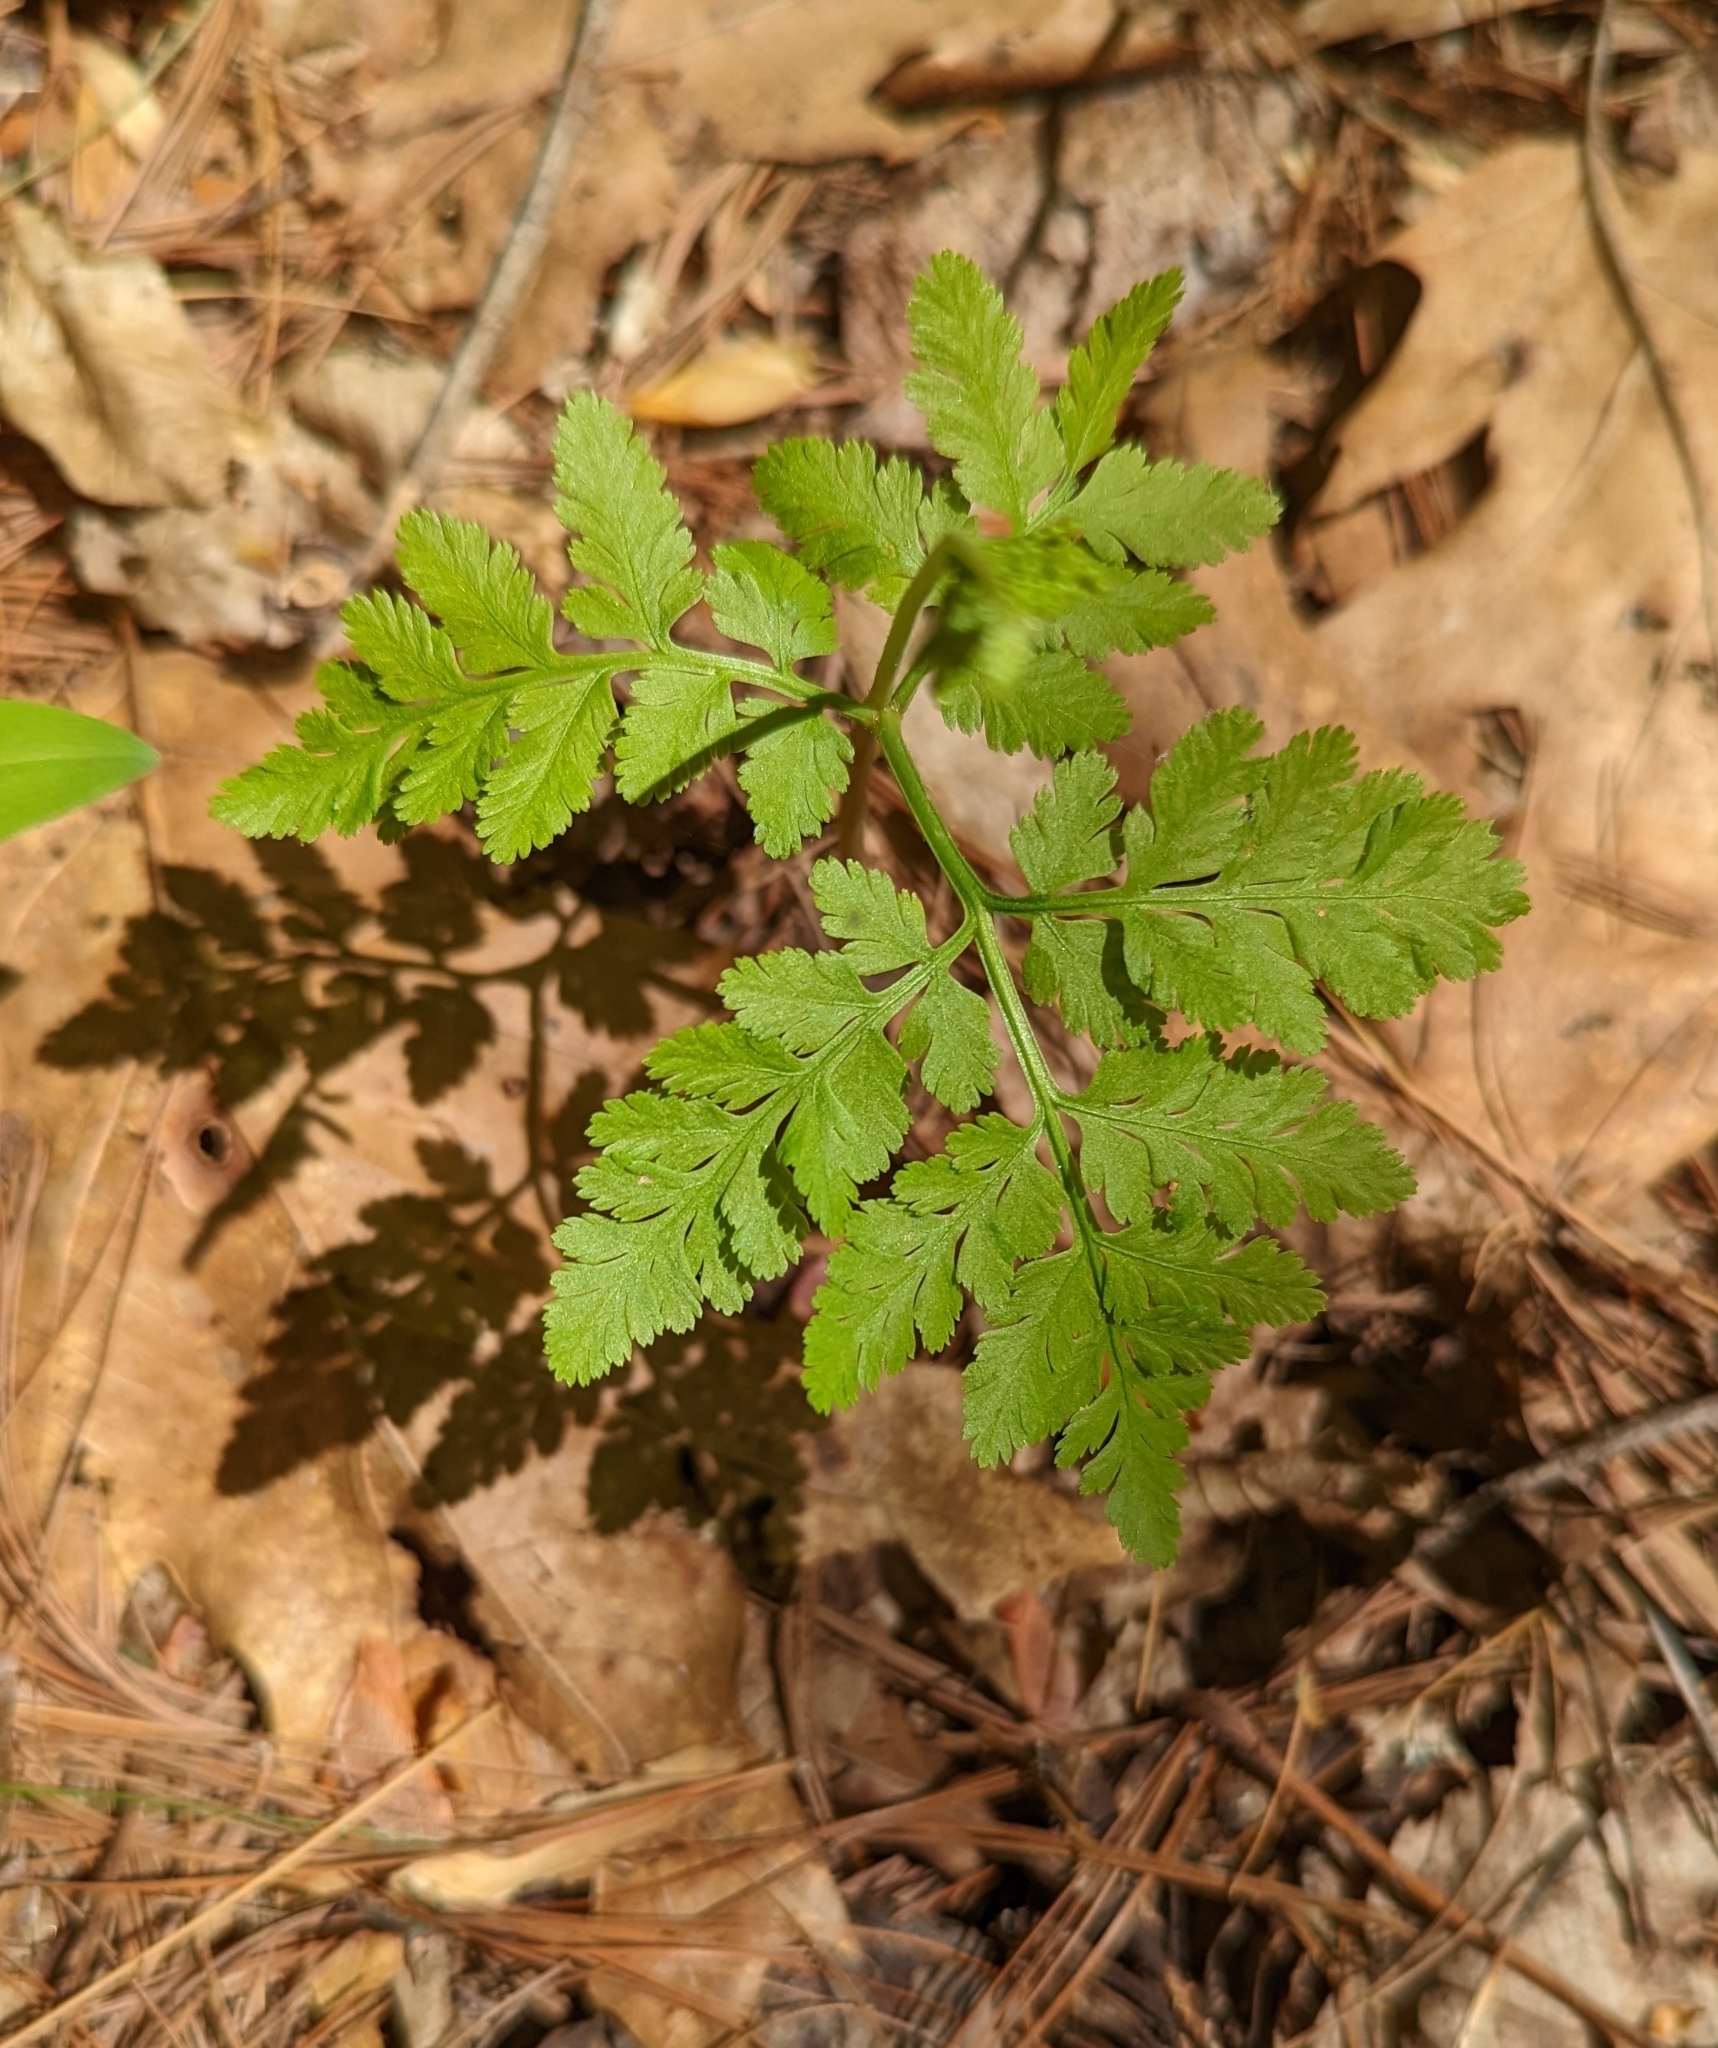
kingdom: Plantae
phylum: Tracheophyta
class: Polypodiopsida
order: Ophioglossales
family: Ophioglossaceae
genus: Botrypus
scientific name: Botrypus virginianus
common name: Common grapefern
